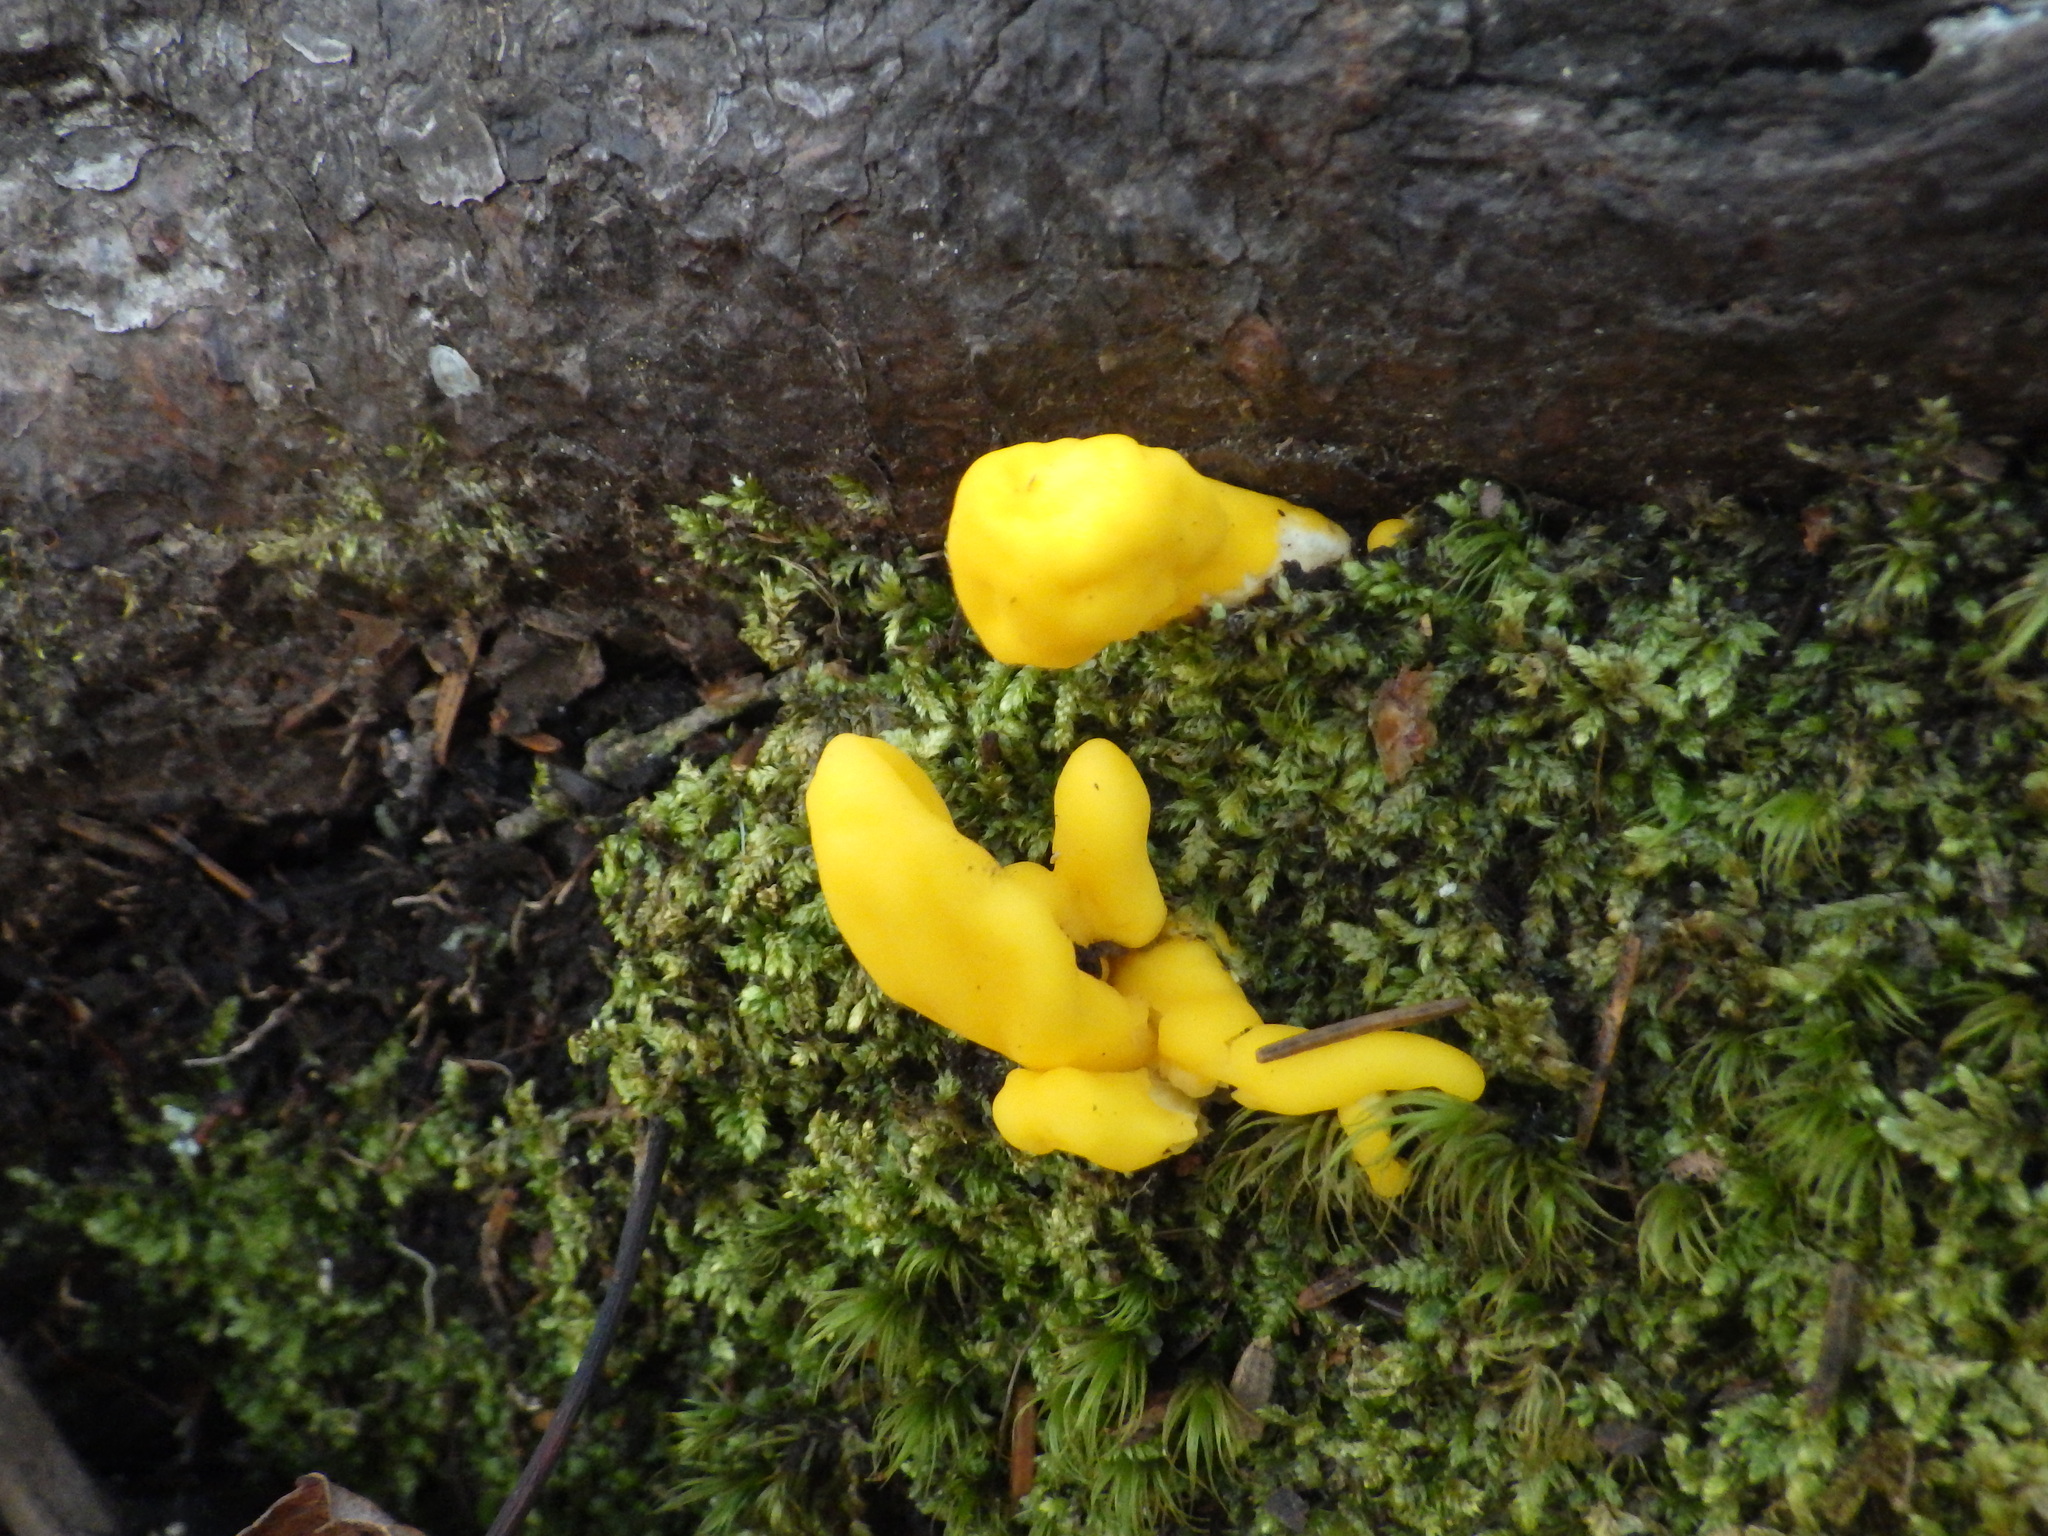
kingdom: Fungi
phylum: Ascomycota
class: Neolectomycetes
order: Neolectales
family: Neolectaceae
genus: Neolecta
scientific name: Neolecta irregularis
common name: Irregular earth tongue
